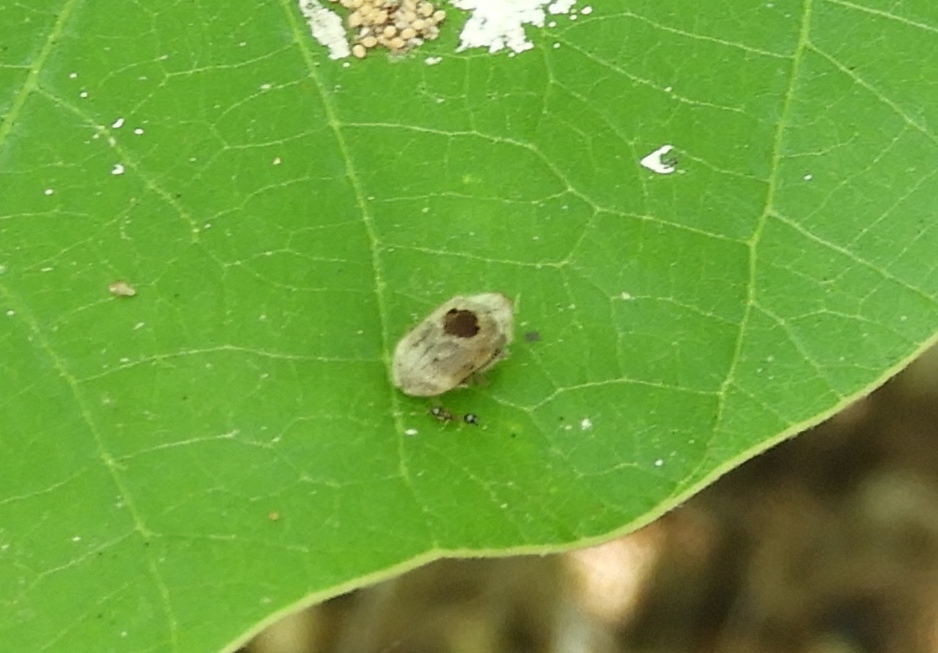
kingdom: Animalia
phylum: Arthropoda
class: Insecta
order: Coleoptera
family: Anobiidae
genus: Trichodesma
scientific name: Trichodesma
